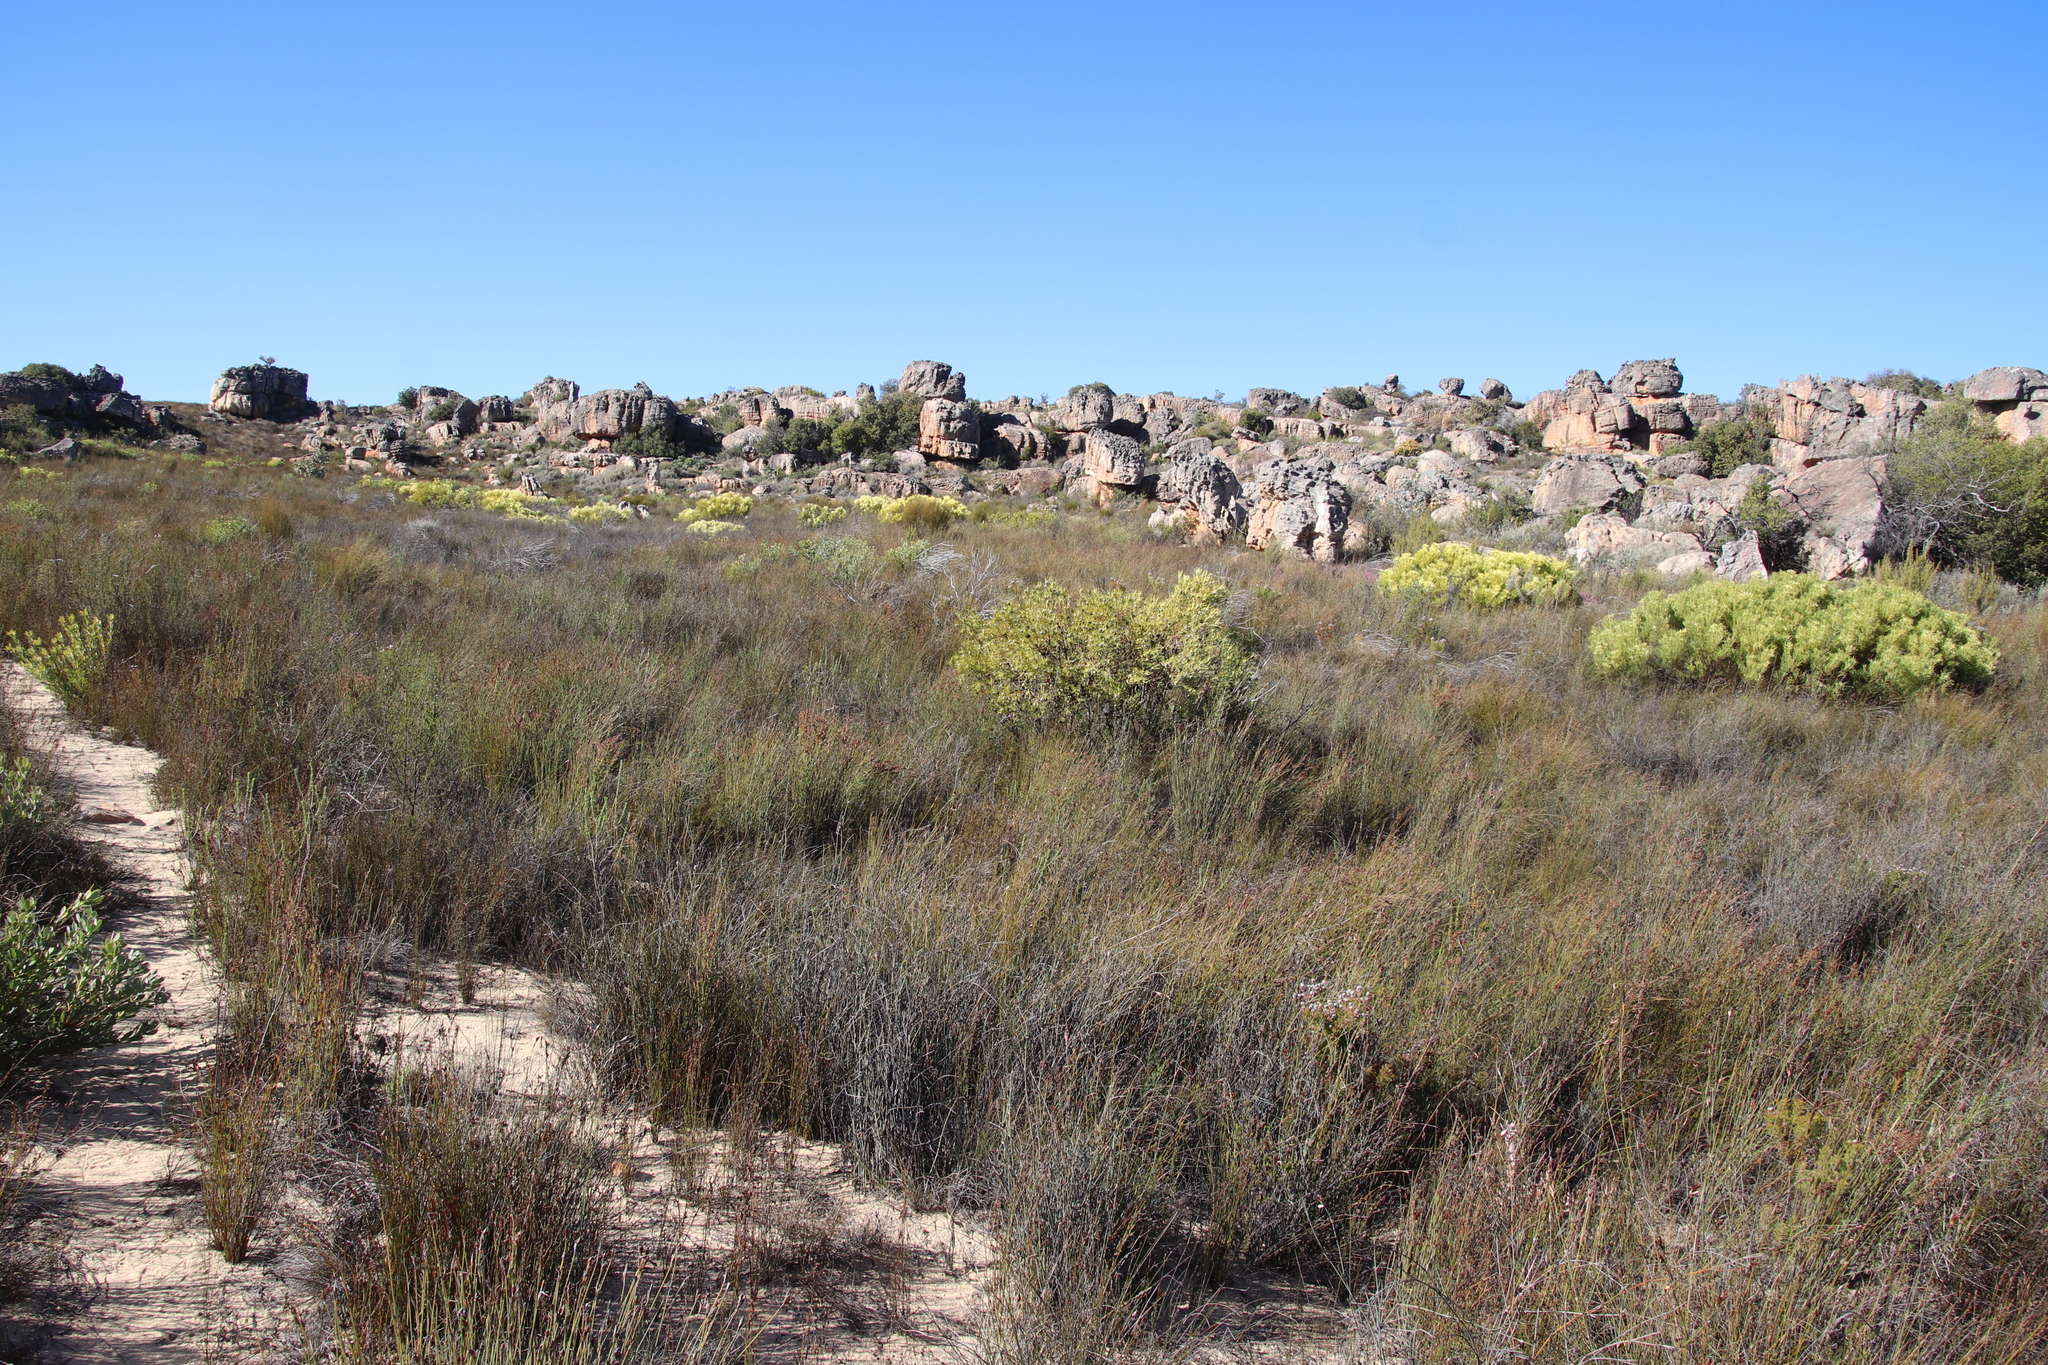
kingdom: Plantae
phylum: Tracheophyta
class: Magnoliopsida
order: Proteales
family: Proteaceae
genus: Leucadendron
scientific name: Leucadendron loranthifolium
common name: Green-flower sunbush
